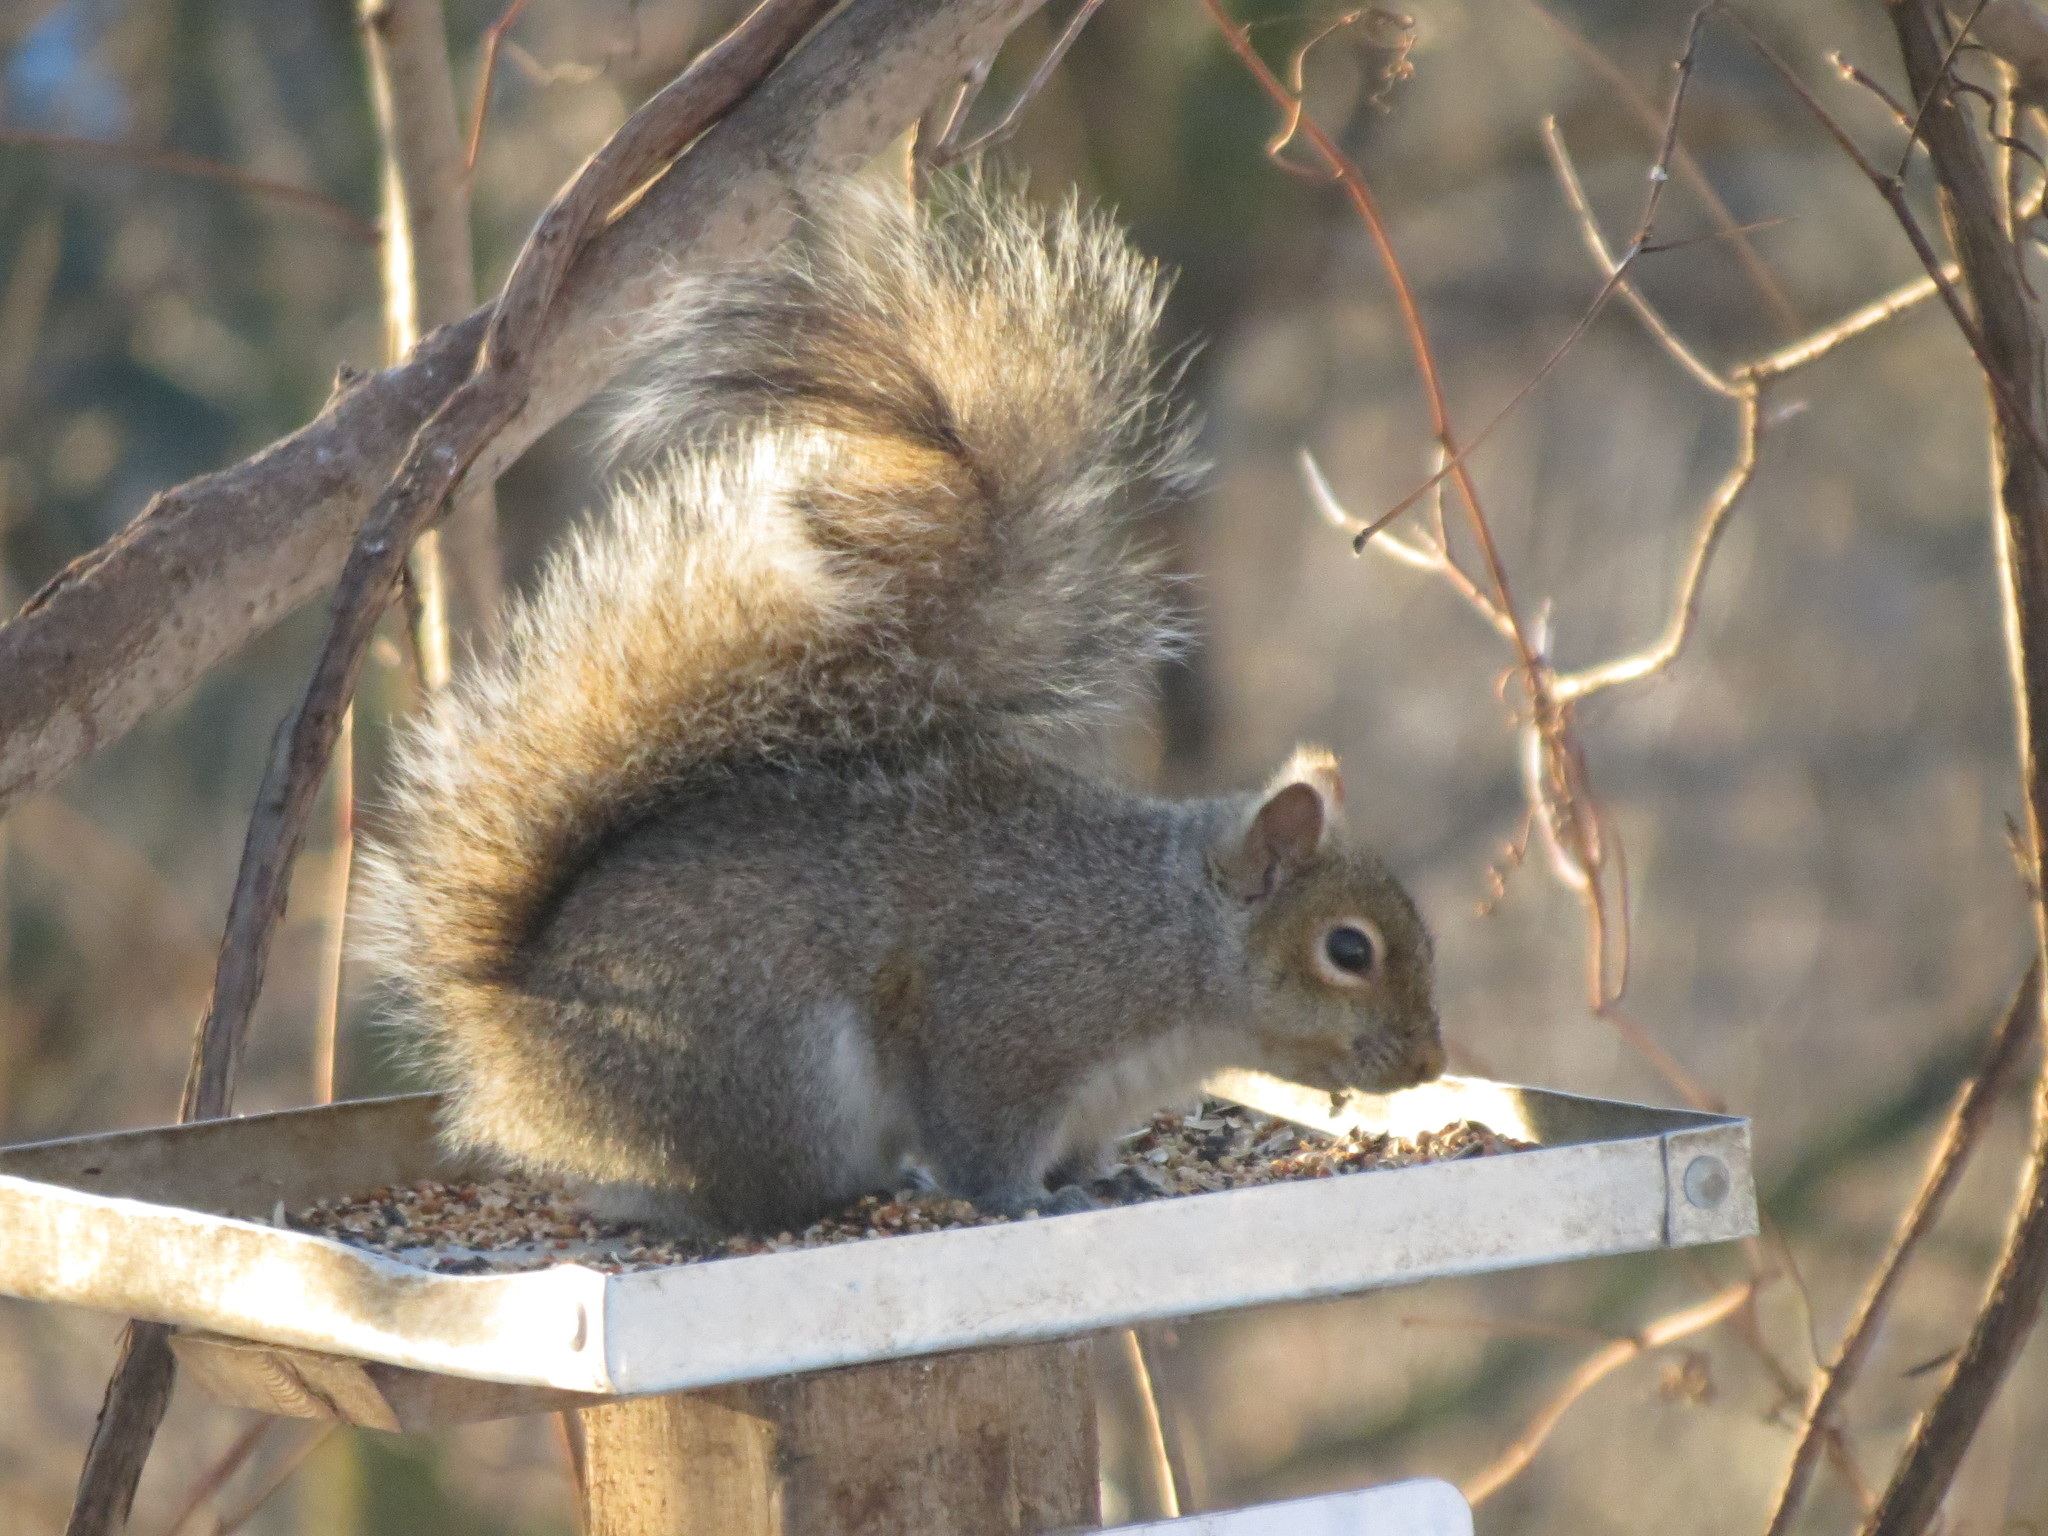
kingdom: Animalia
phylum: Chordata
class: Mammalia
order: Rodentia
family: Sciuridae
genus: Sciurus
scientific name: Sciurus carolinensis
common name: Eastern gray squirrel
